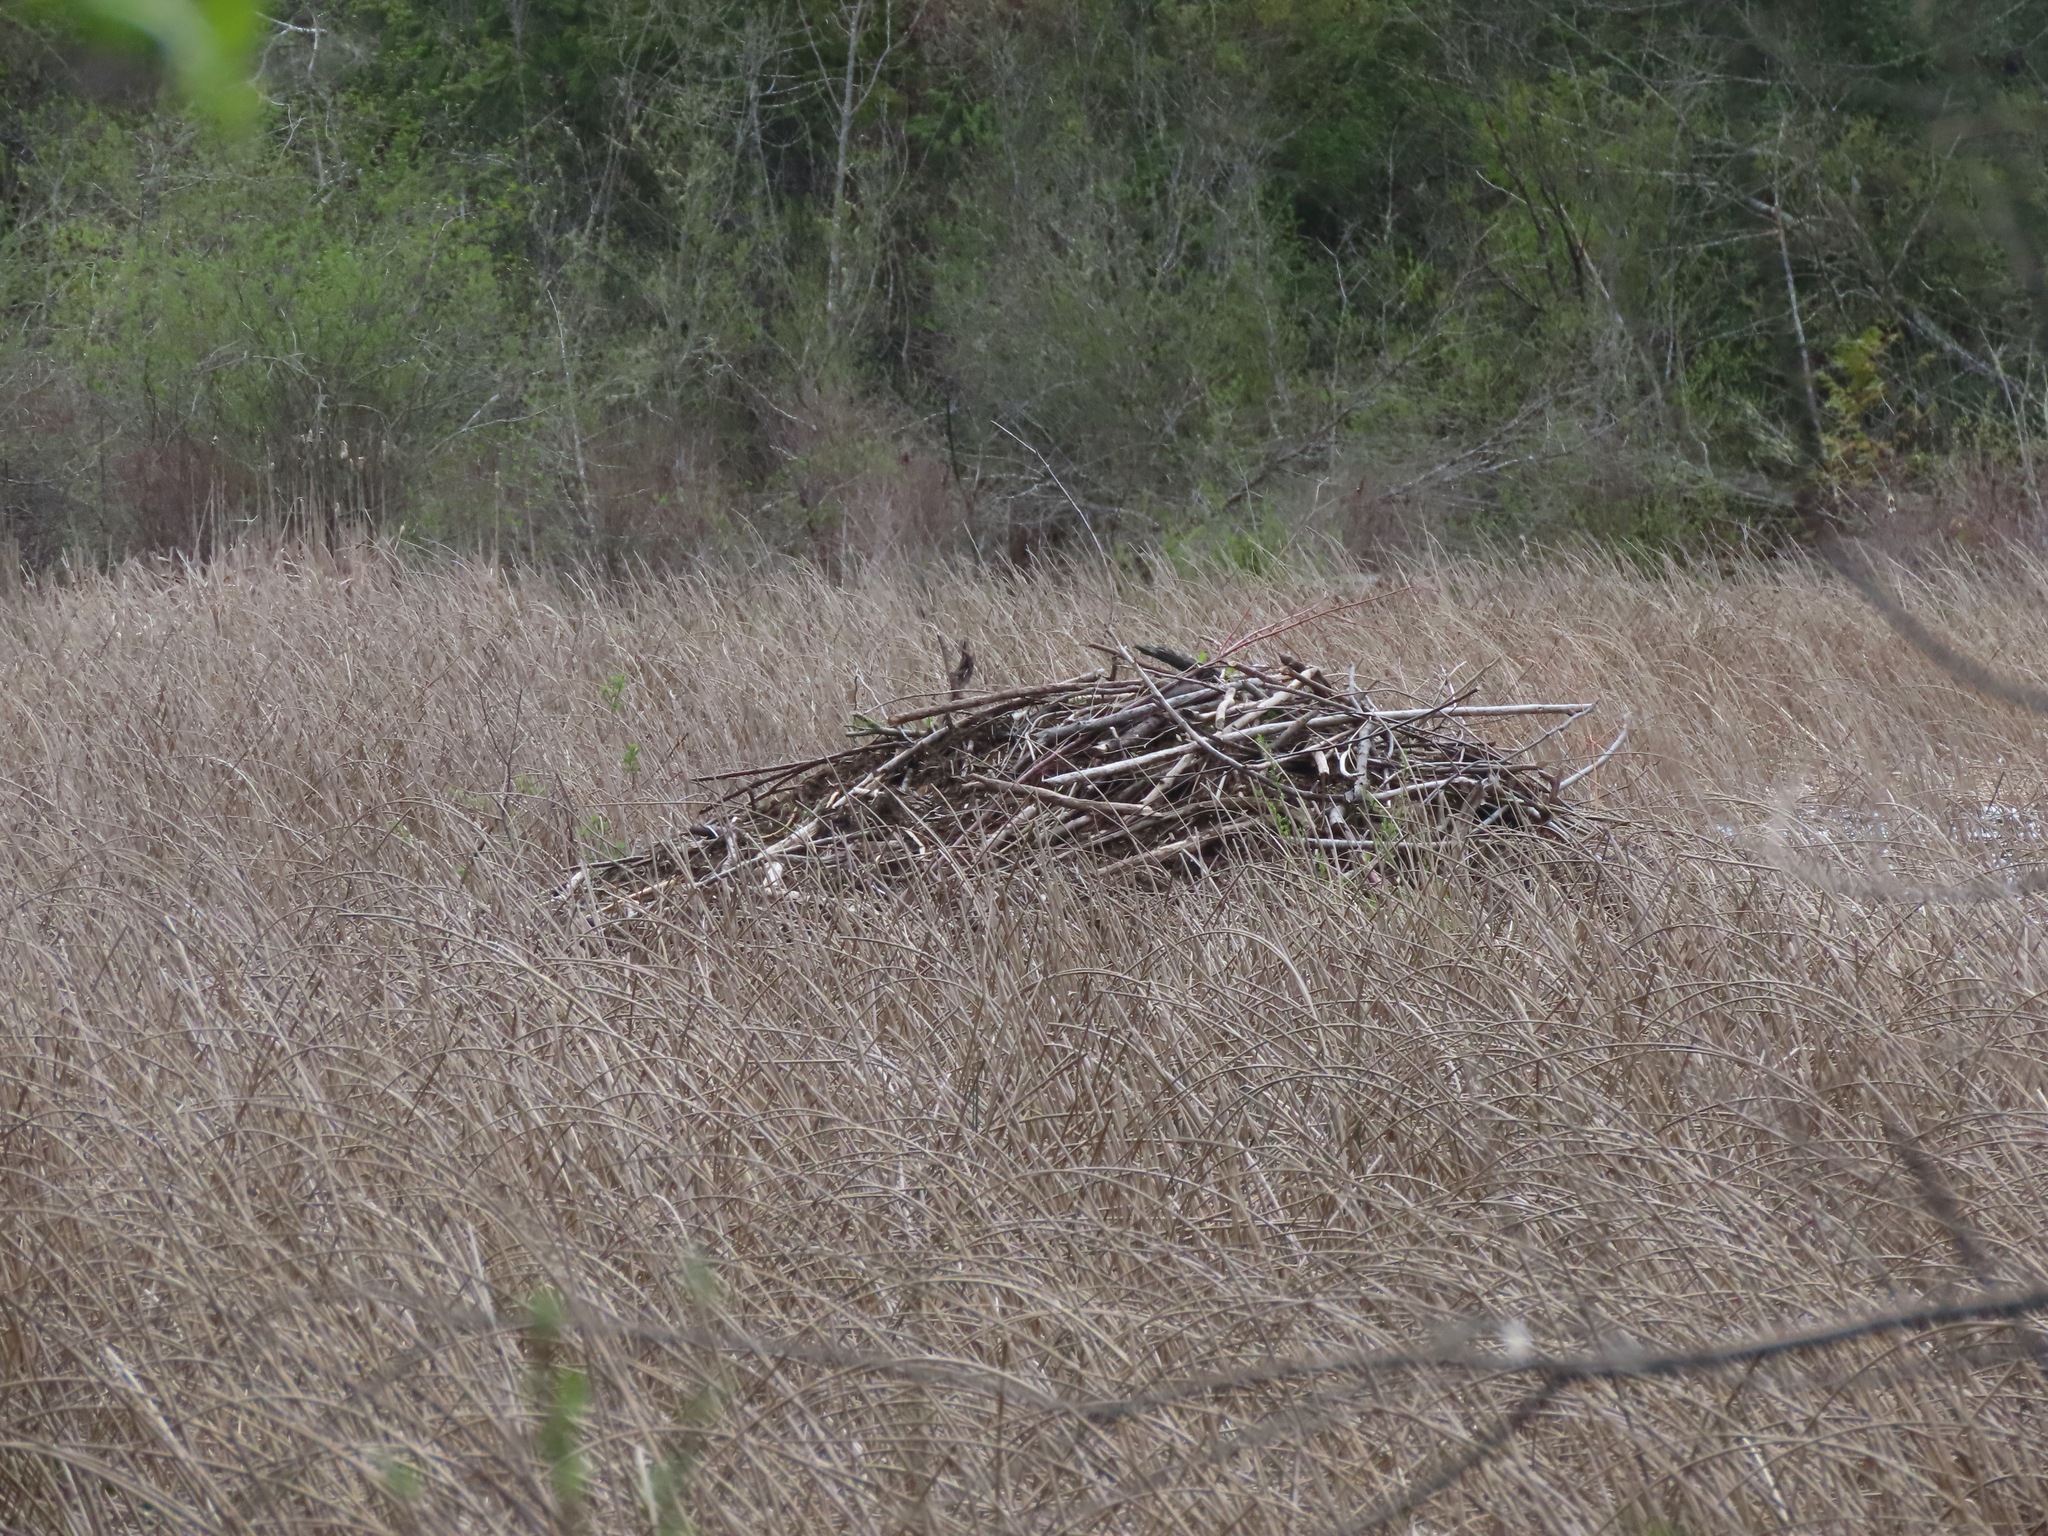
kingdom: Animalia
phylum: Chordata
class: Mammalia
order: Rodentia
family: Castoridae
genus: Castor
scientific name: Castor canadensis
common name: American beaver
